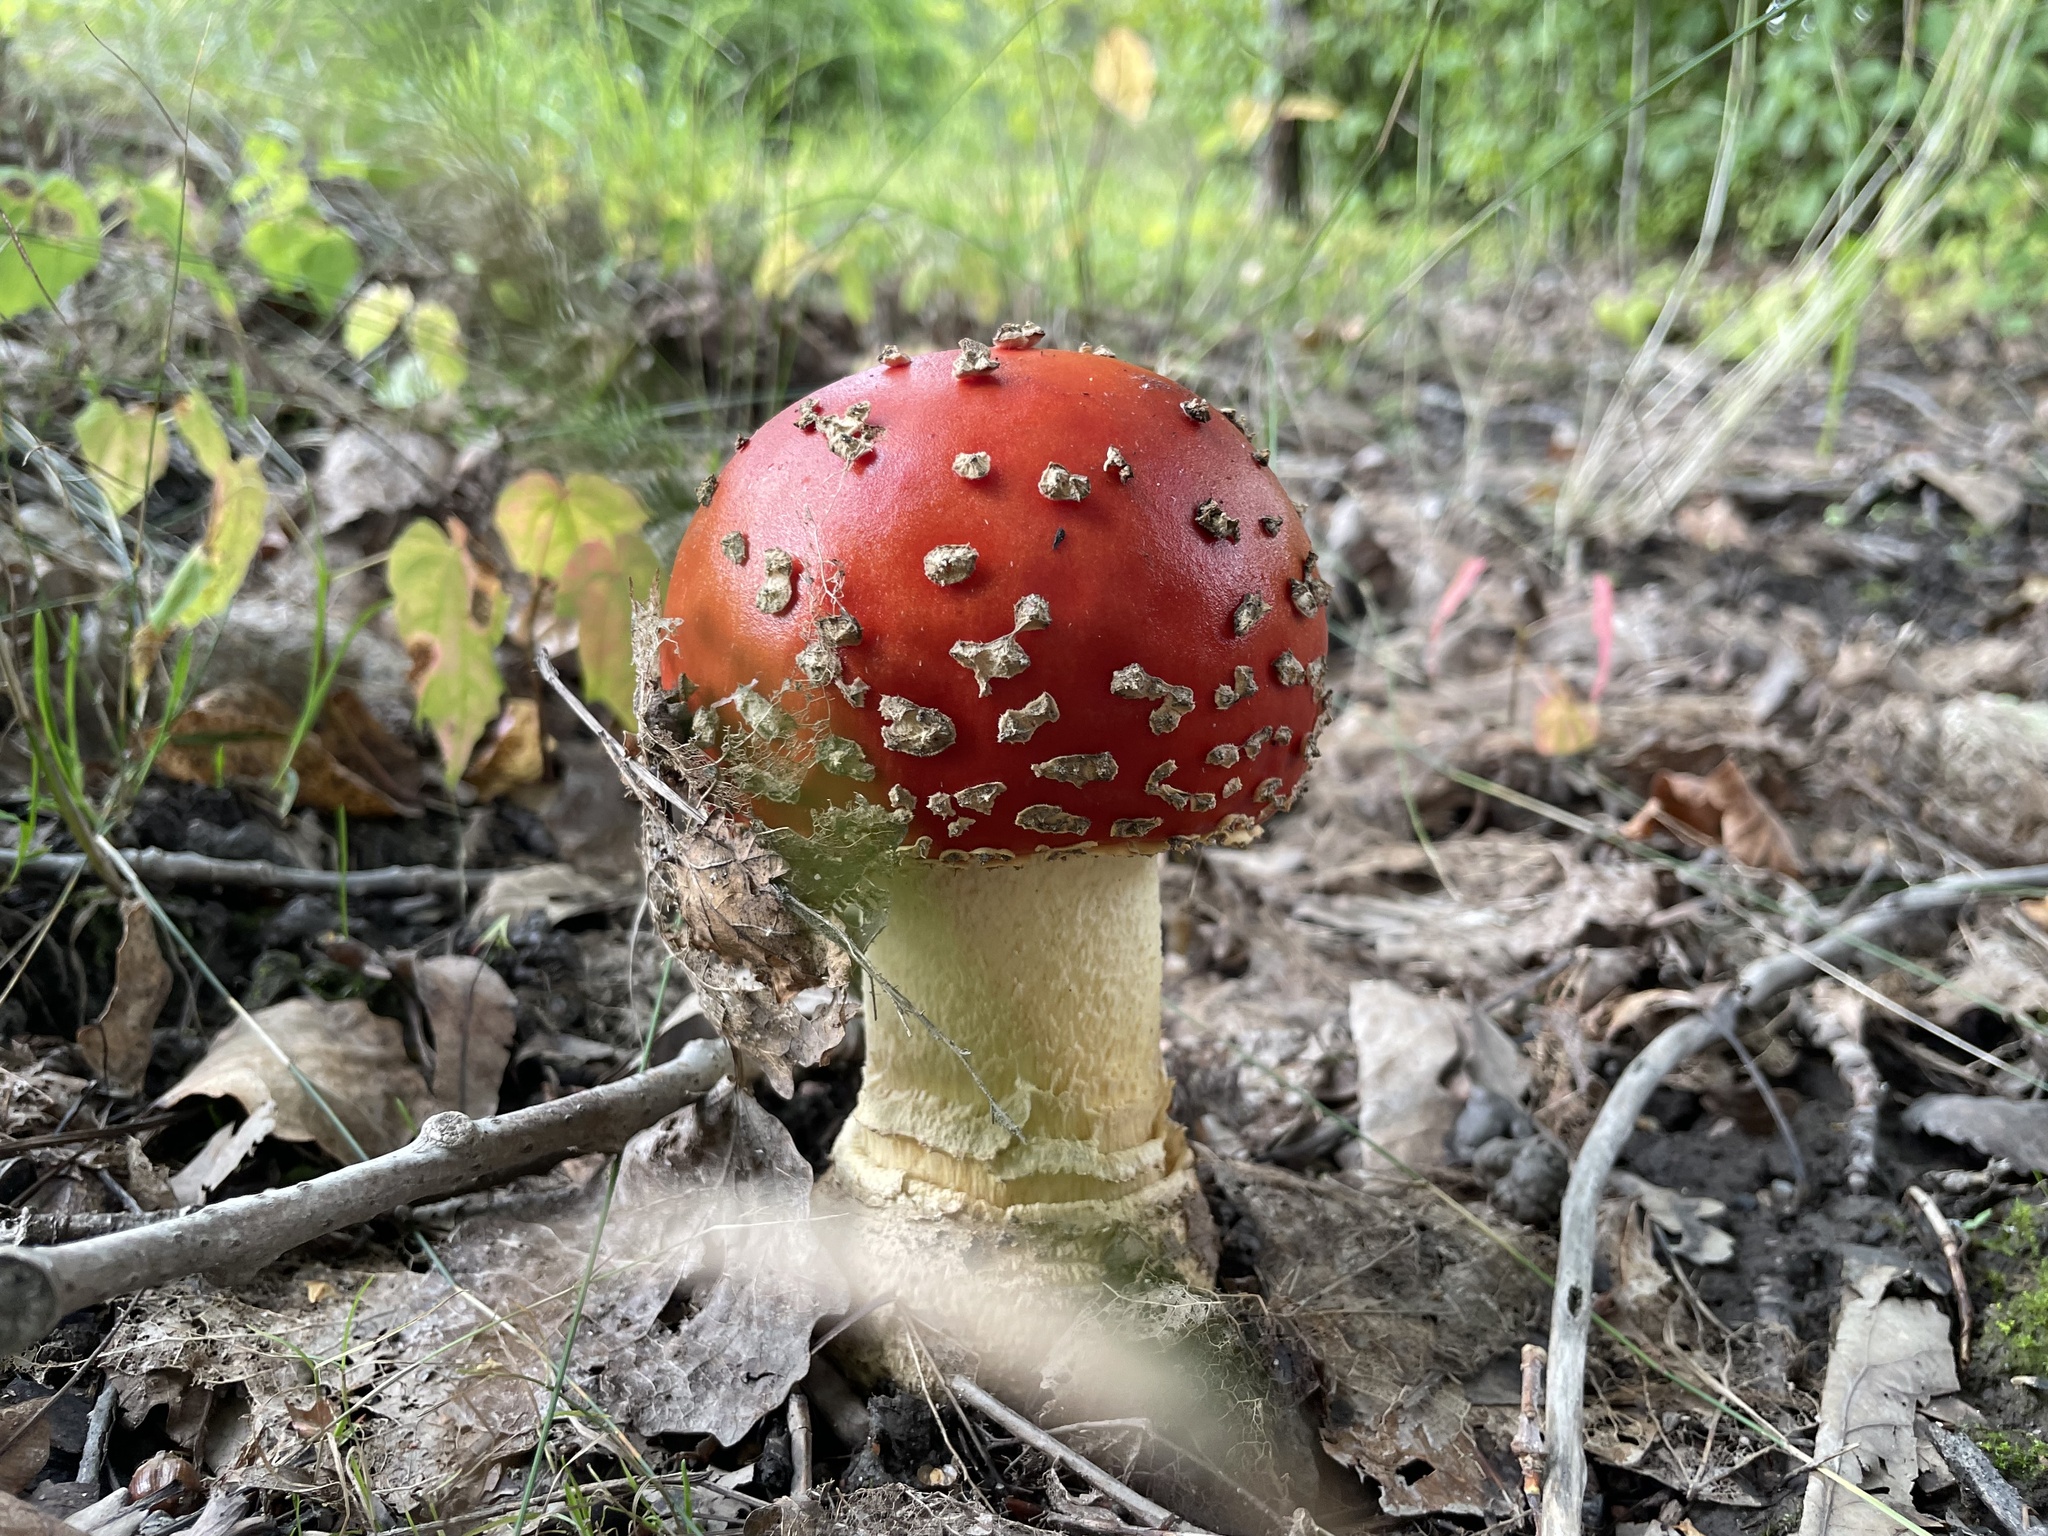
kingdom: Fungi
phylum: Basidiomycota
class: Agaricomycetes
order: Agaricales
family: Amanitaceae
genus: Amanita
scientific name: Amanita muscaria
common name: Fly agaric
